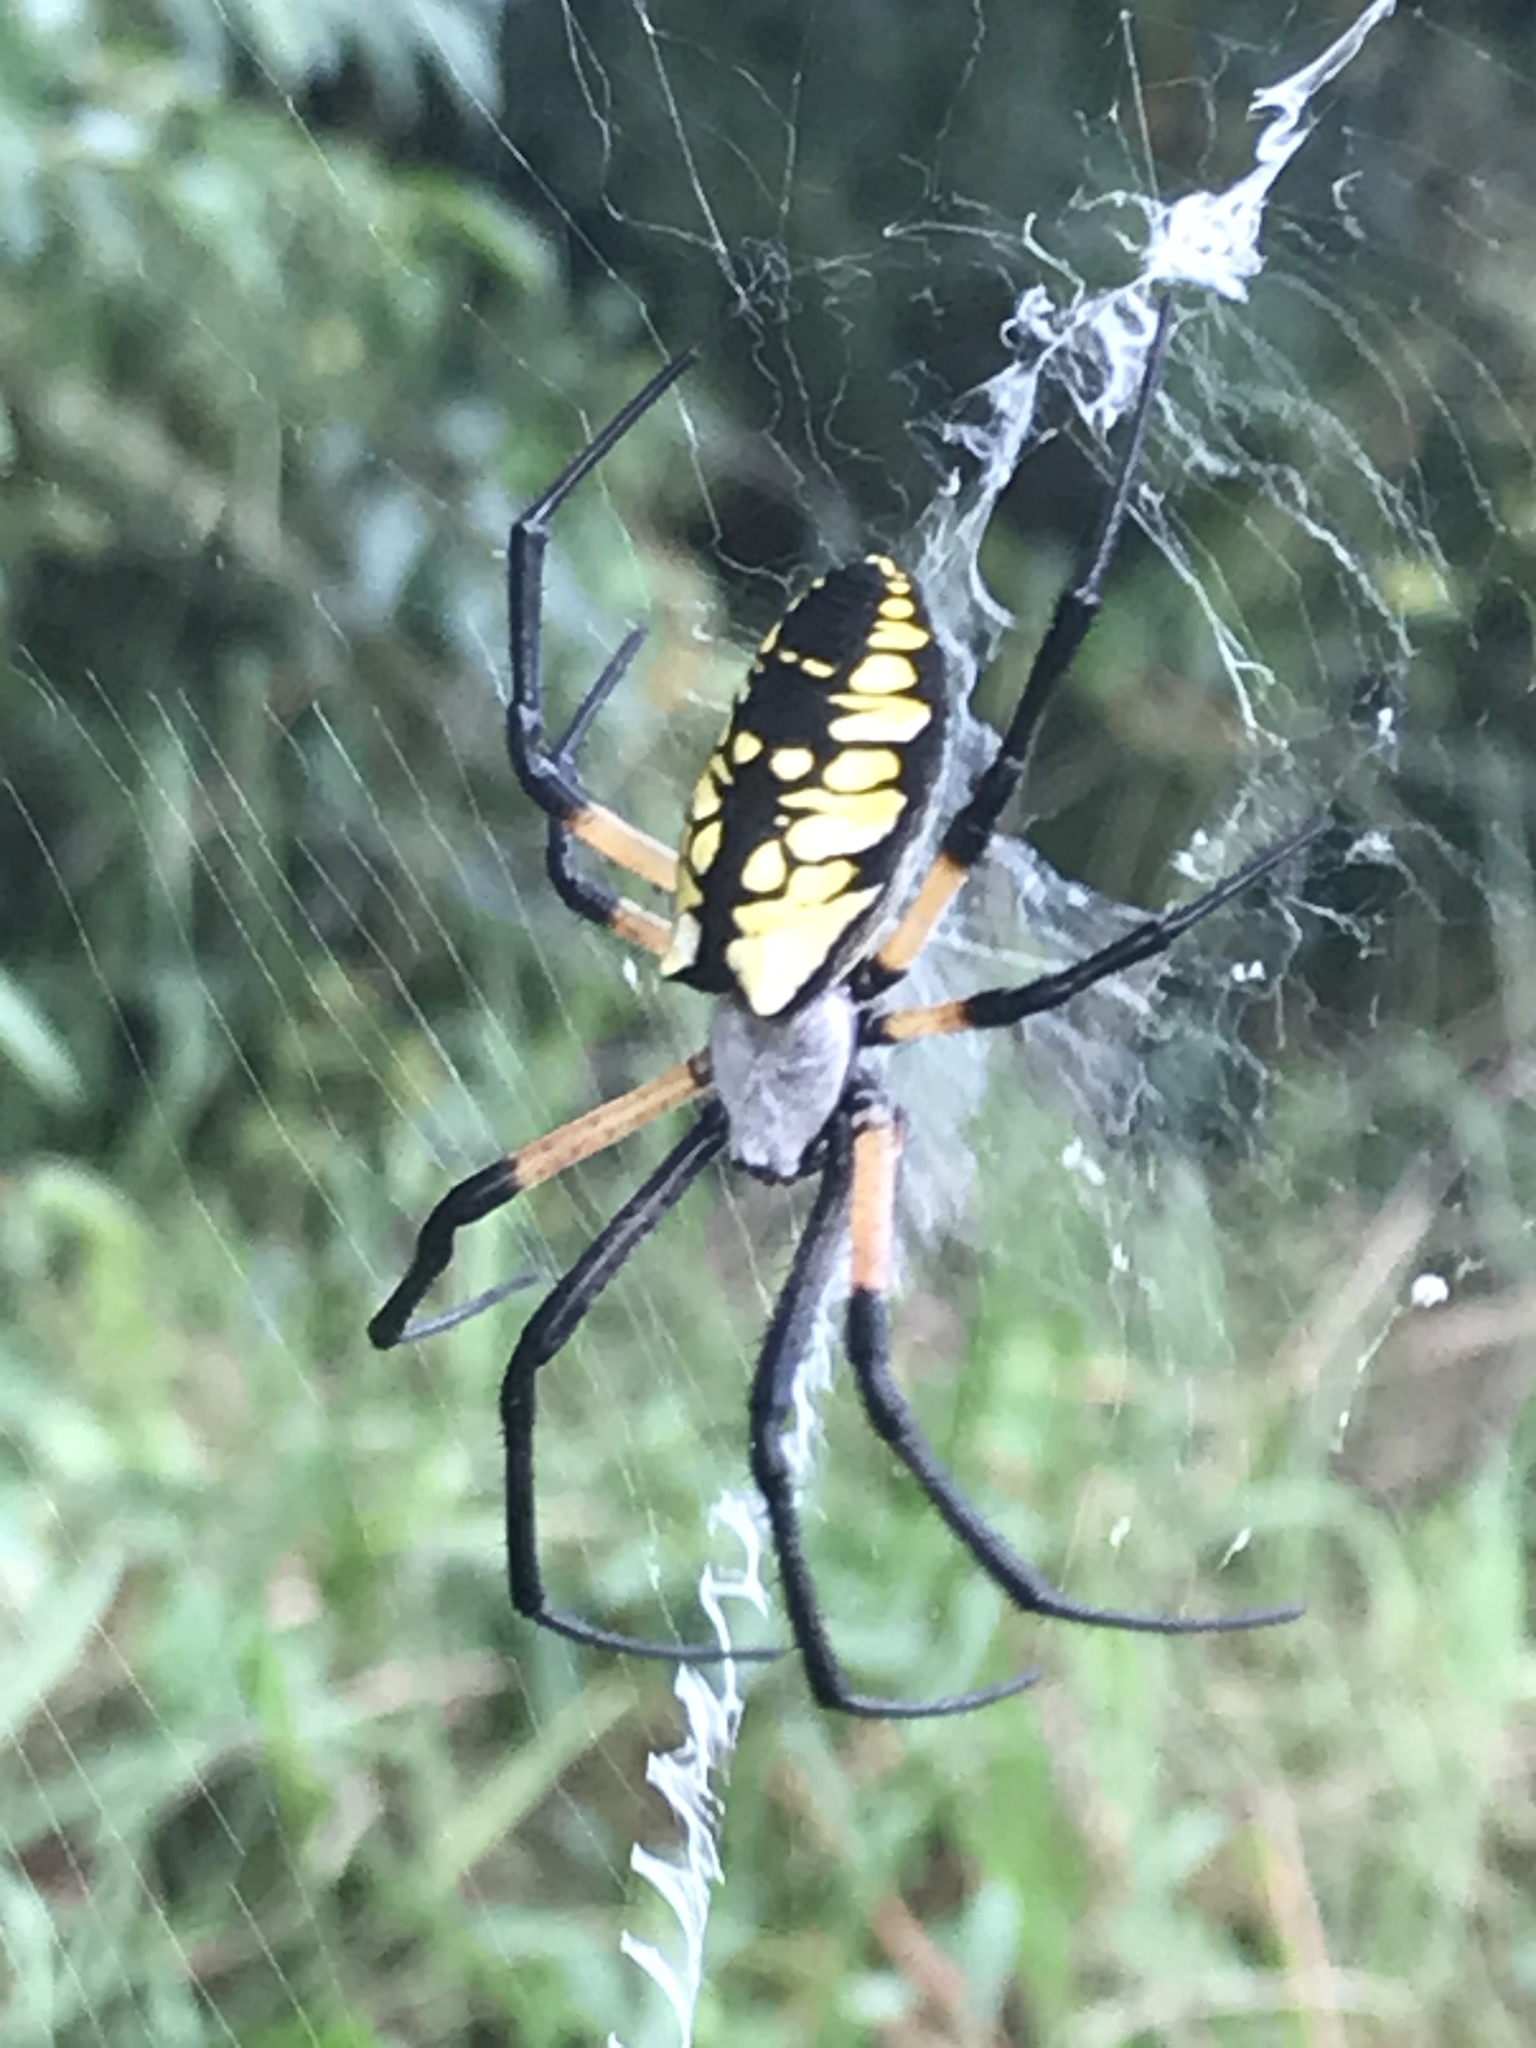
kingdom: Animalia
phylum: Arthropoda
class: Arachnida
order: Araneae
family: Araneidae
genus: Argiope
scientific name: Argiope aurantia
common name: Orb weavers
